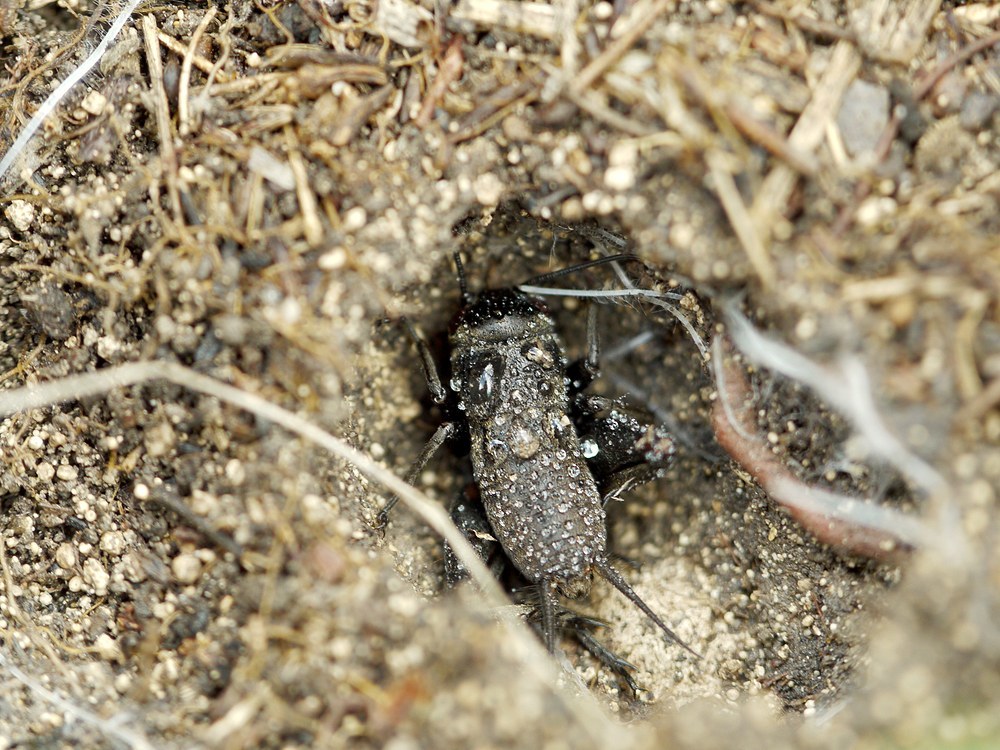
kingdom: Animalia
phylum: Arthropoda
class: Insecta
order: Orthoptera
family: Gryllidae
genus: Melanogryllus
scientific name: Melanogryllus desertus
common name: Desert cricket
